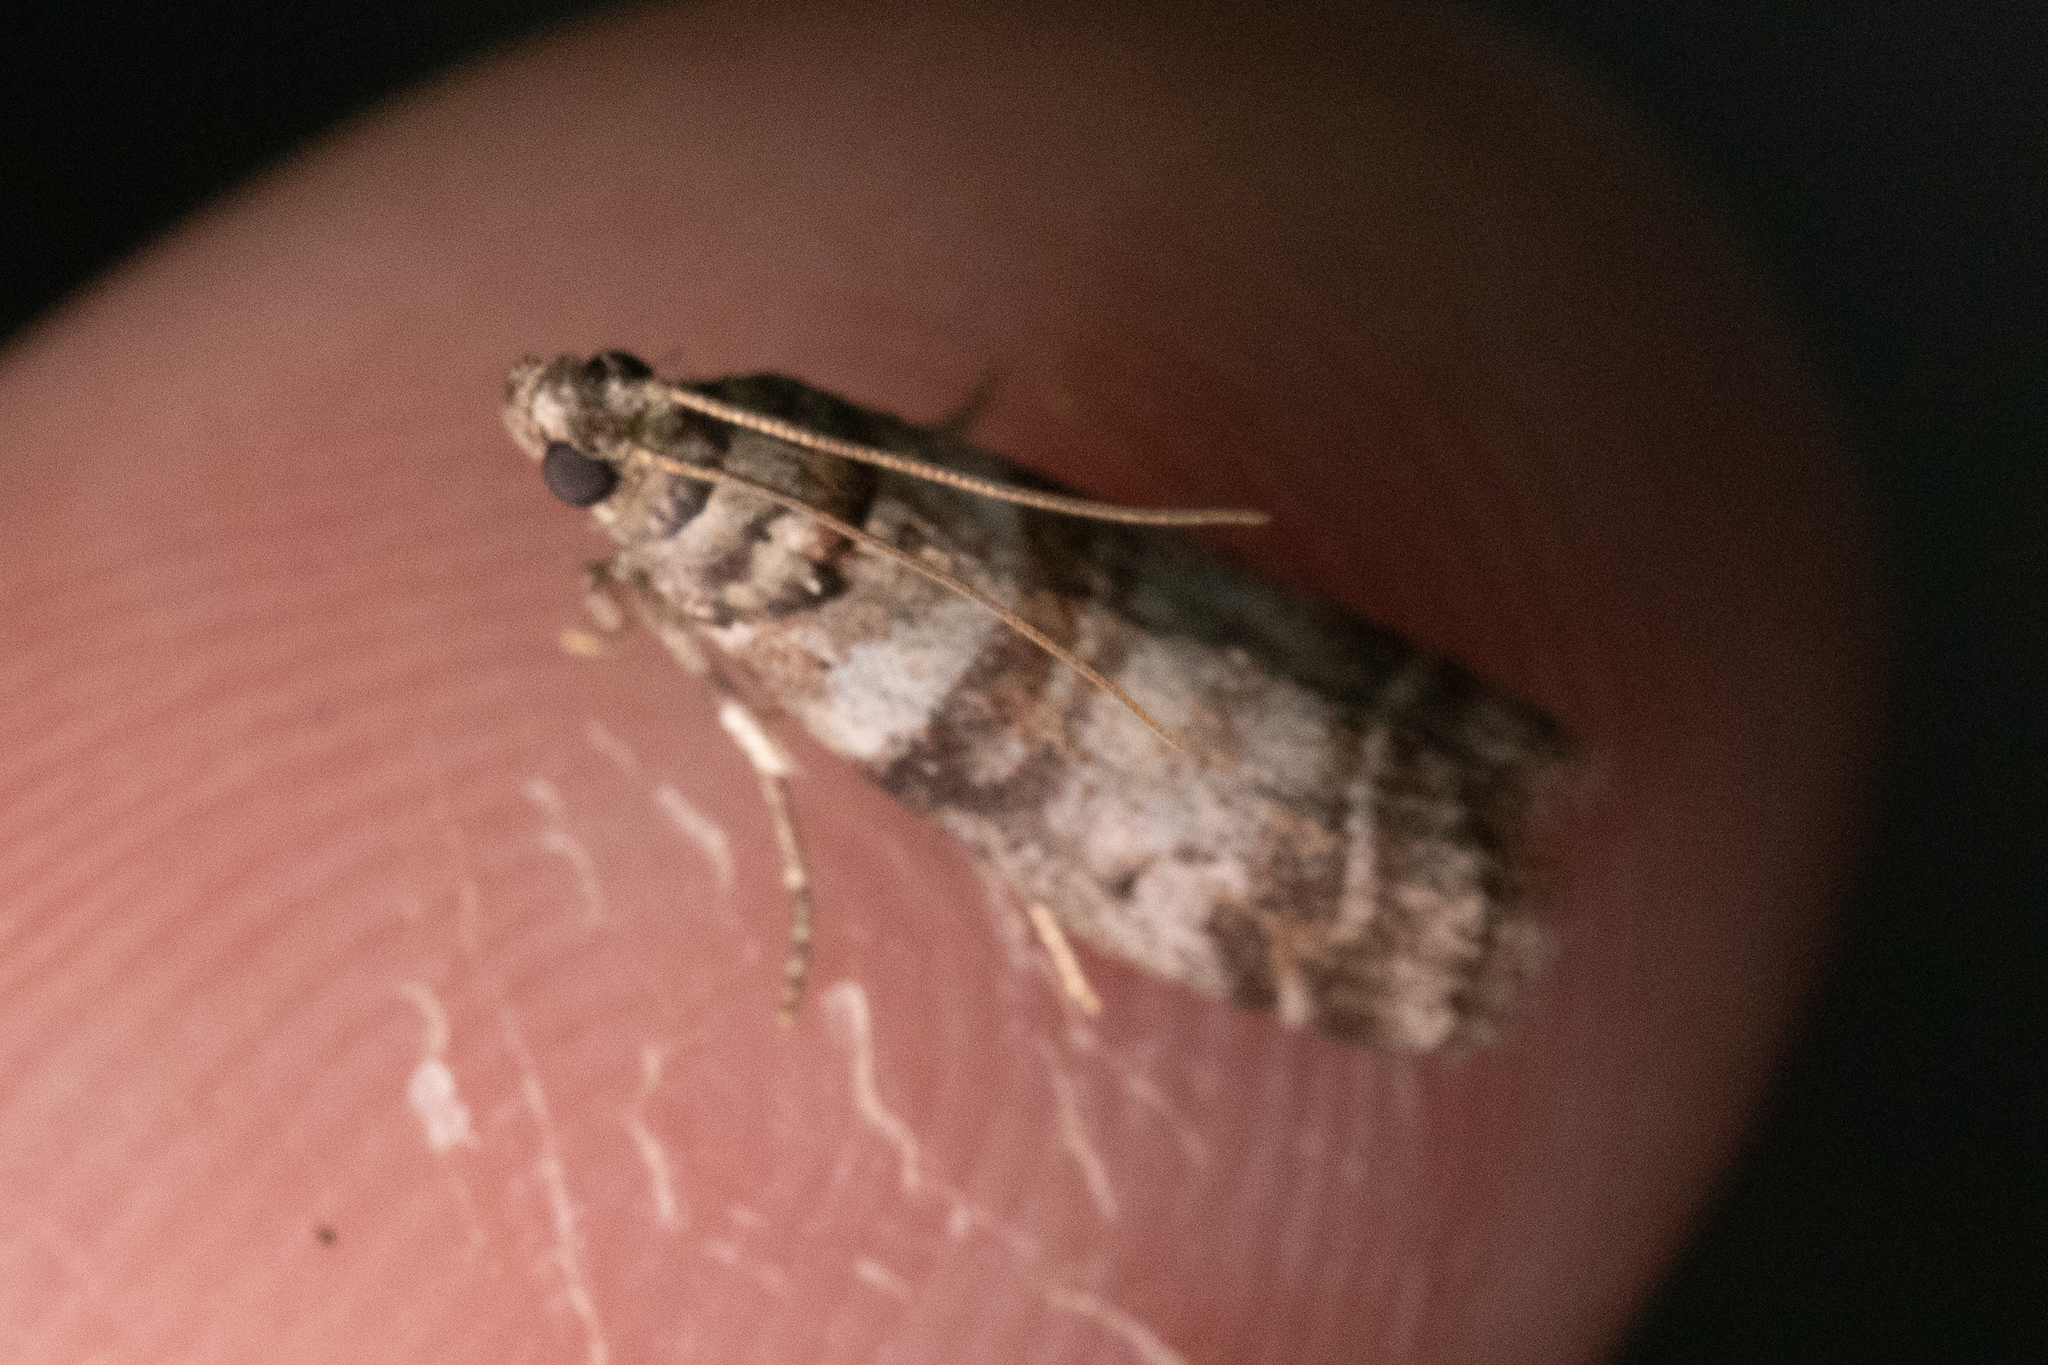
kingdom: Animalia
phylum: Arthropoda
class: Insecta
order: Lepidoptera
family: Pyralidae
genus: Sciota
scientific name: Sciota uvinella
